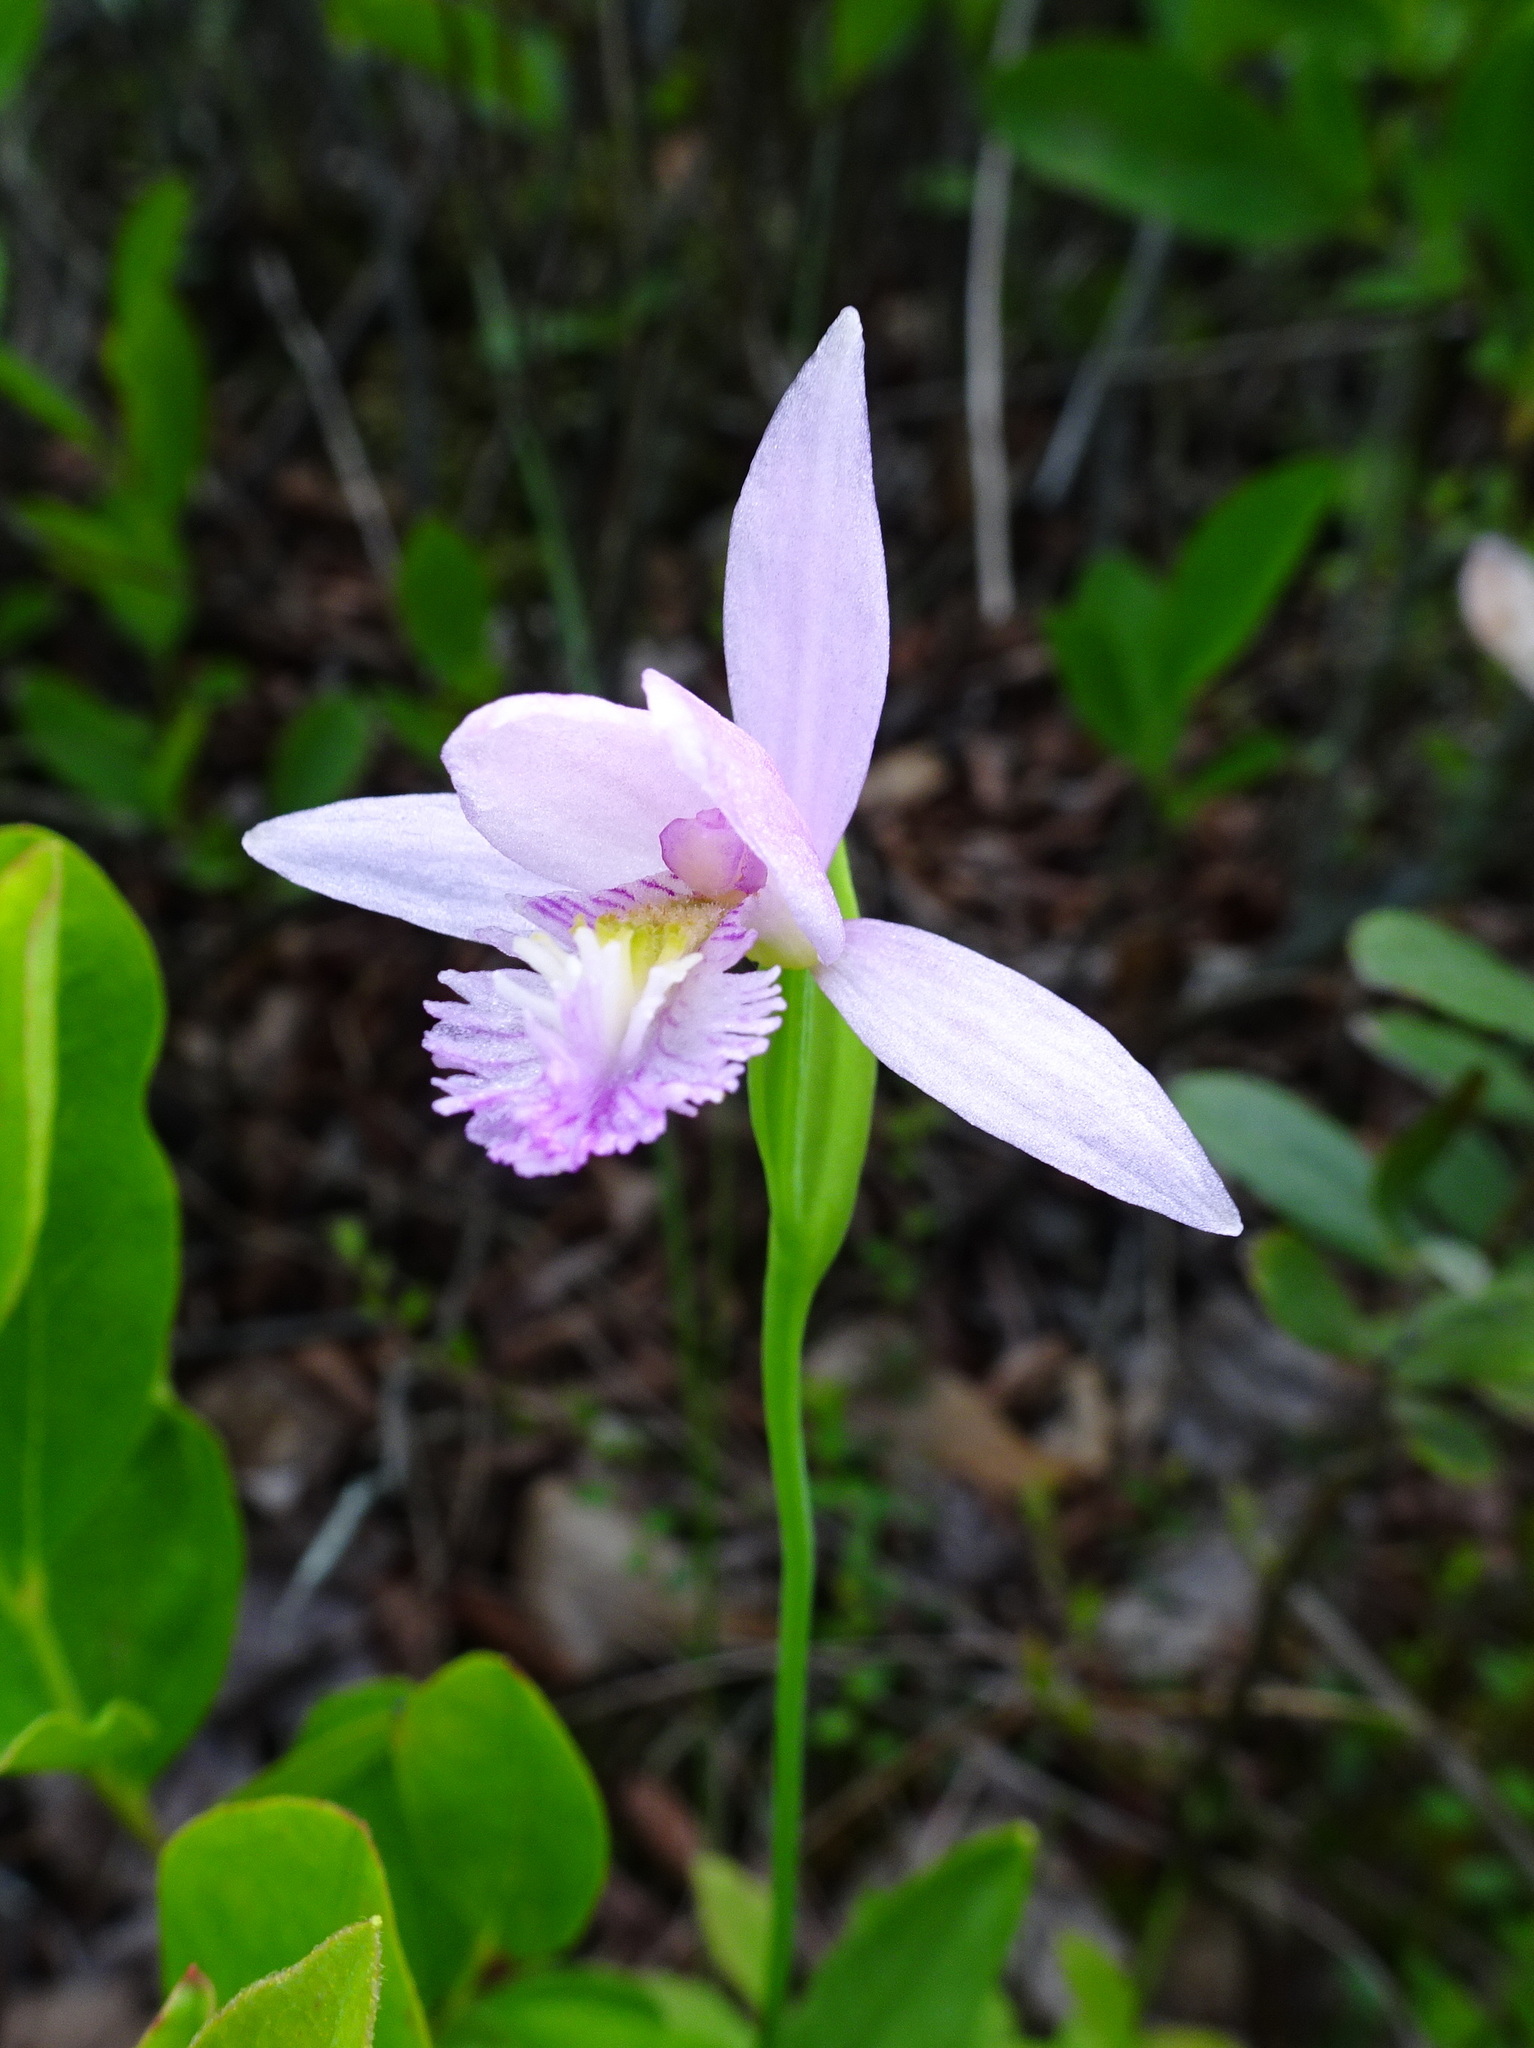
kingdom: Plantae
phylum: Tracheophyta
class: Liliopsida
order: Asparagales
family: Orchidaceae
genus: Pogonia
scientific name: Pogonia ophioglossoides
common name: Rose pogonia
